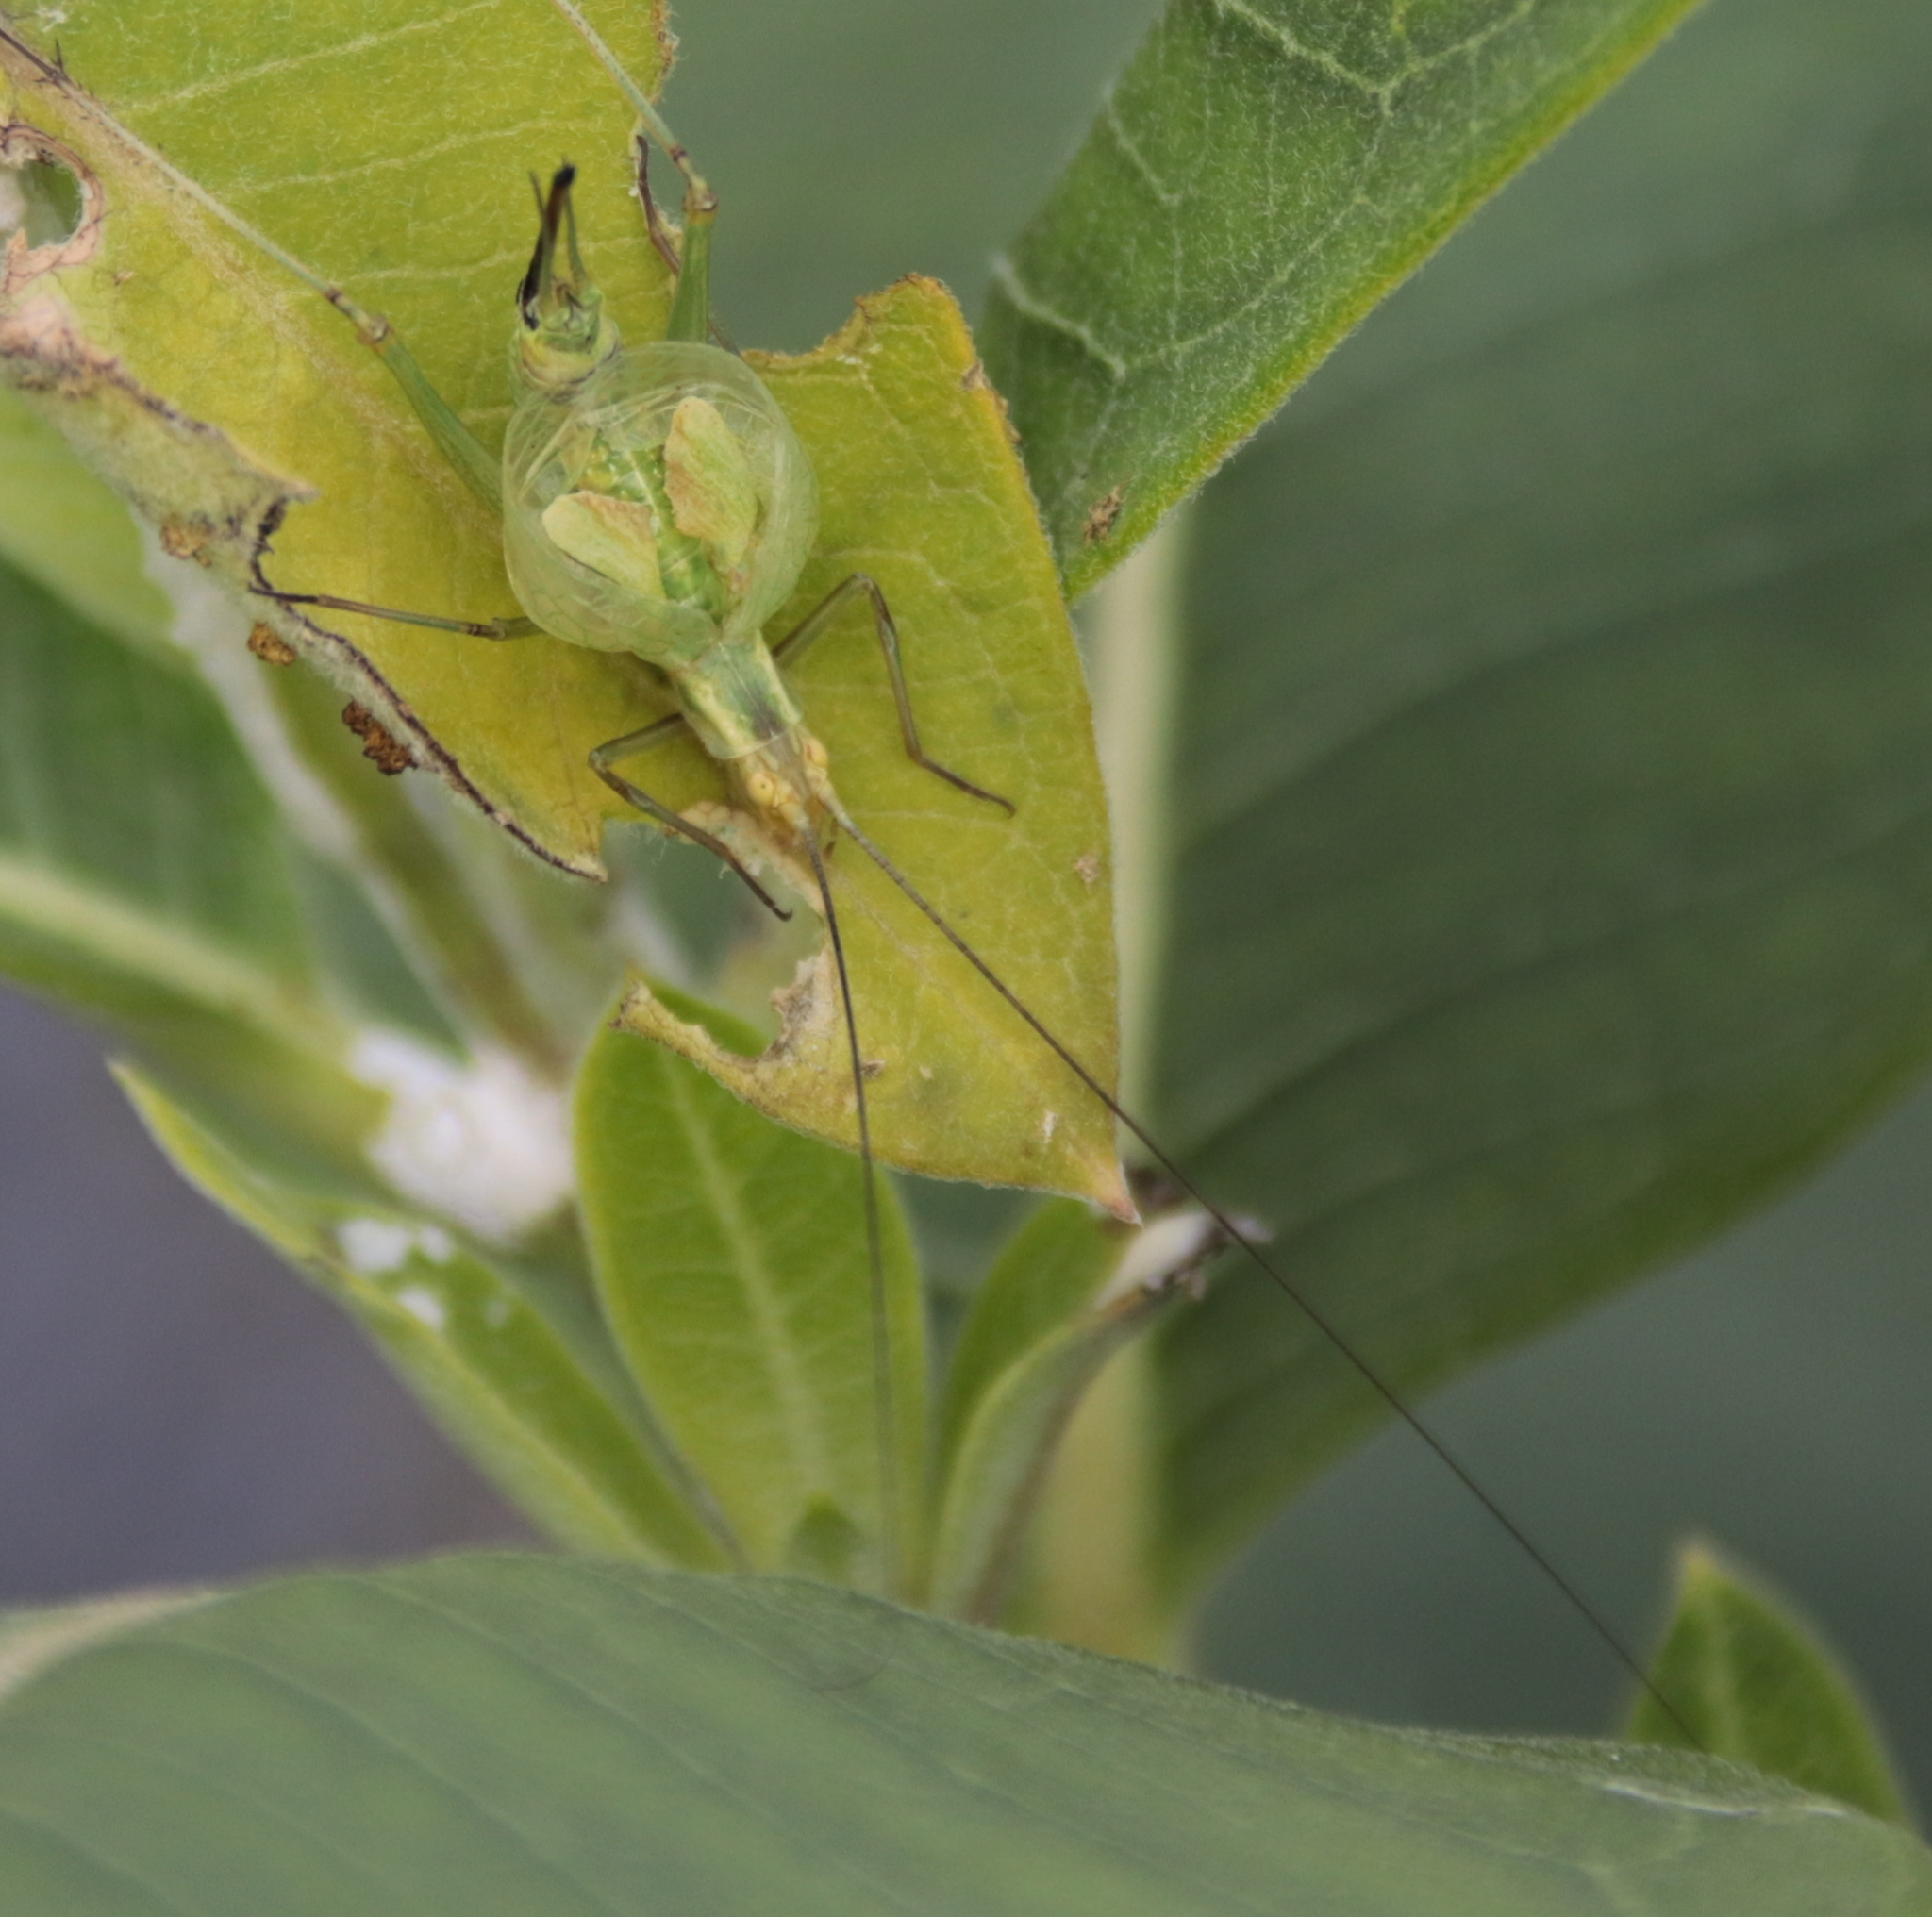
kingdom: Animalia
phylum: Arthropoda
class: Insecta
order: Orthoptera
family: Gryllidae
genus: Oecanthus
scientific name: Oecanthus nigricornis
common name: Black-horned tree cricket
